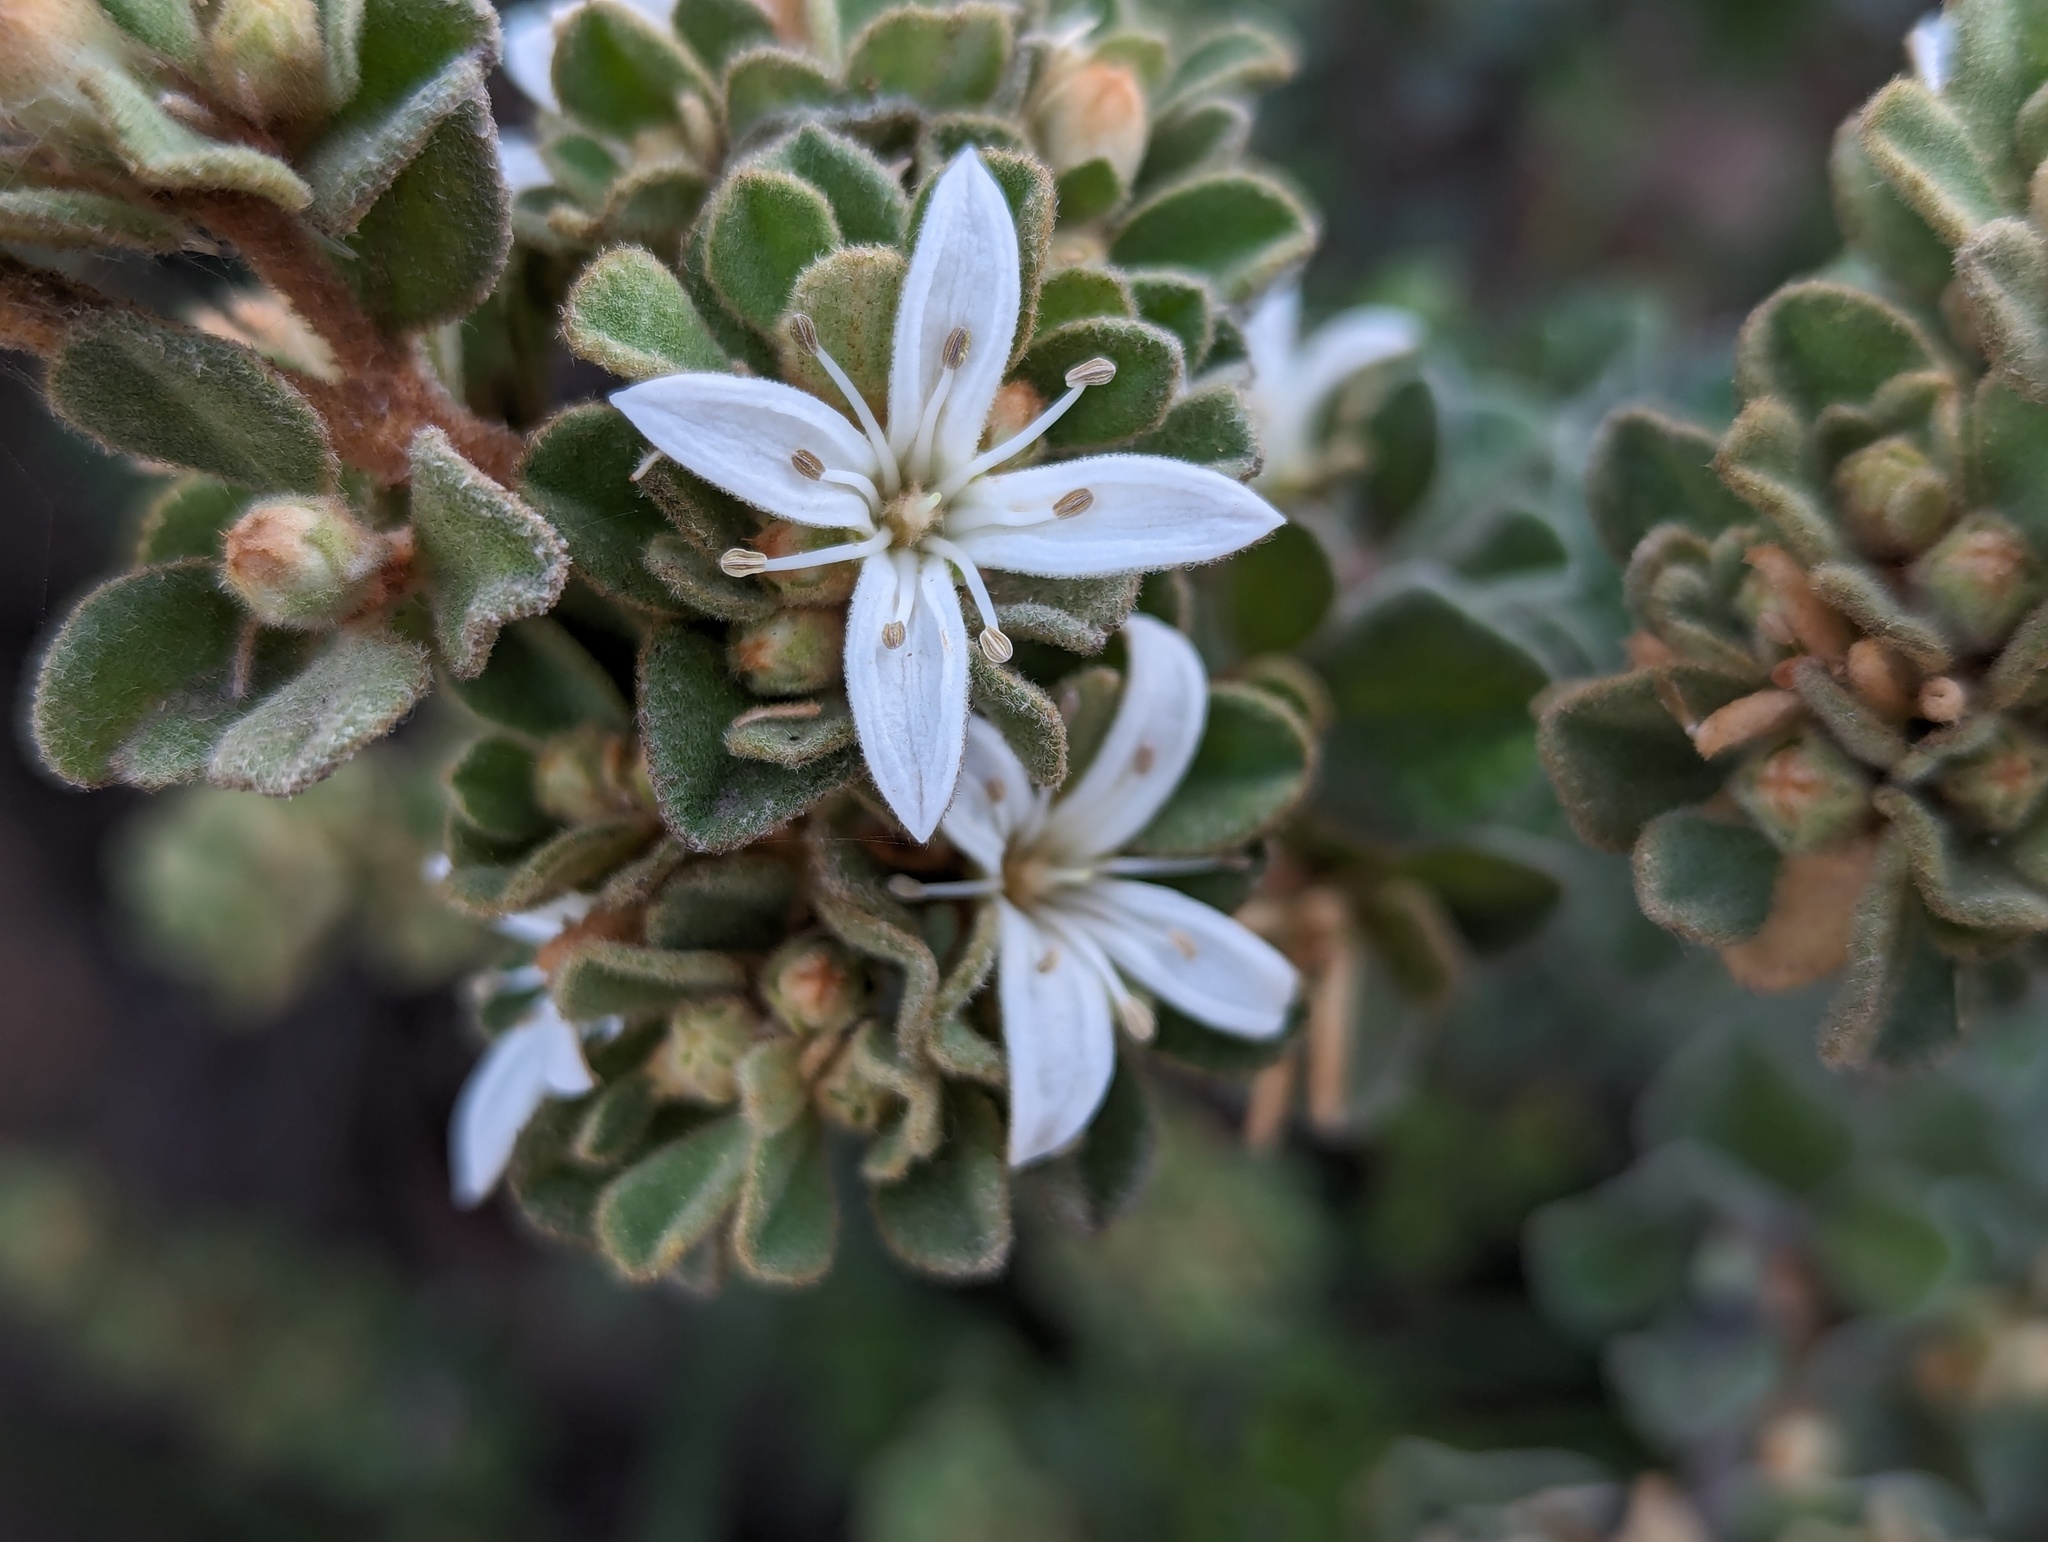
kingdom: Plantae
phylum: Tracheophyta
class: Magnoliopsida
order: Sapindales
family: Rutaceae
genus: Correa
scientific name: Correa alba
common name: White correa
